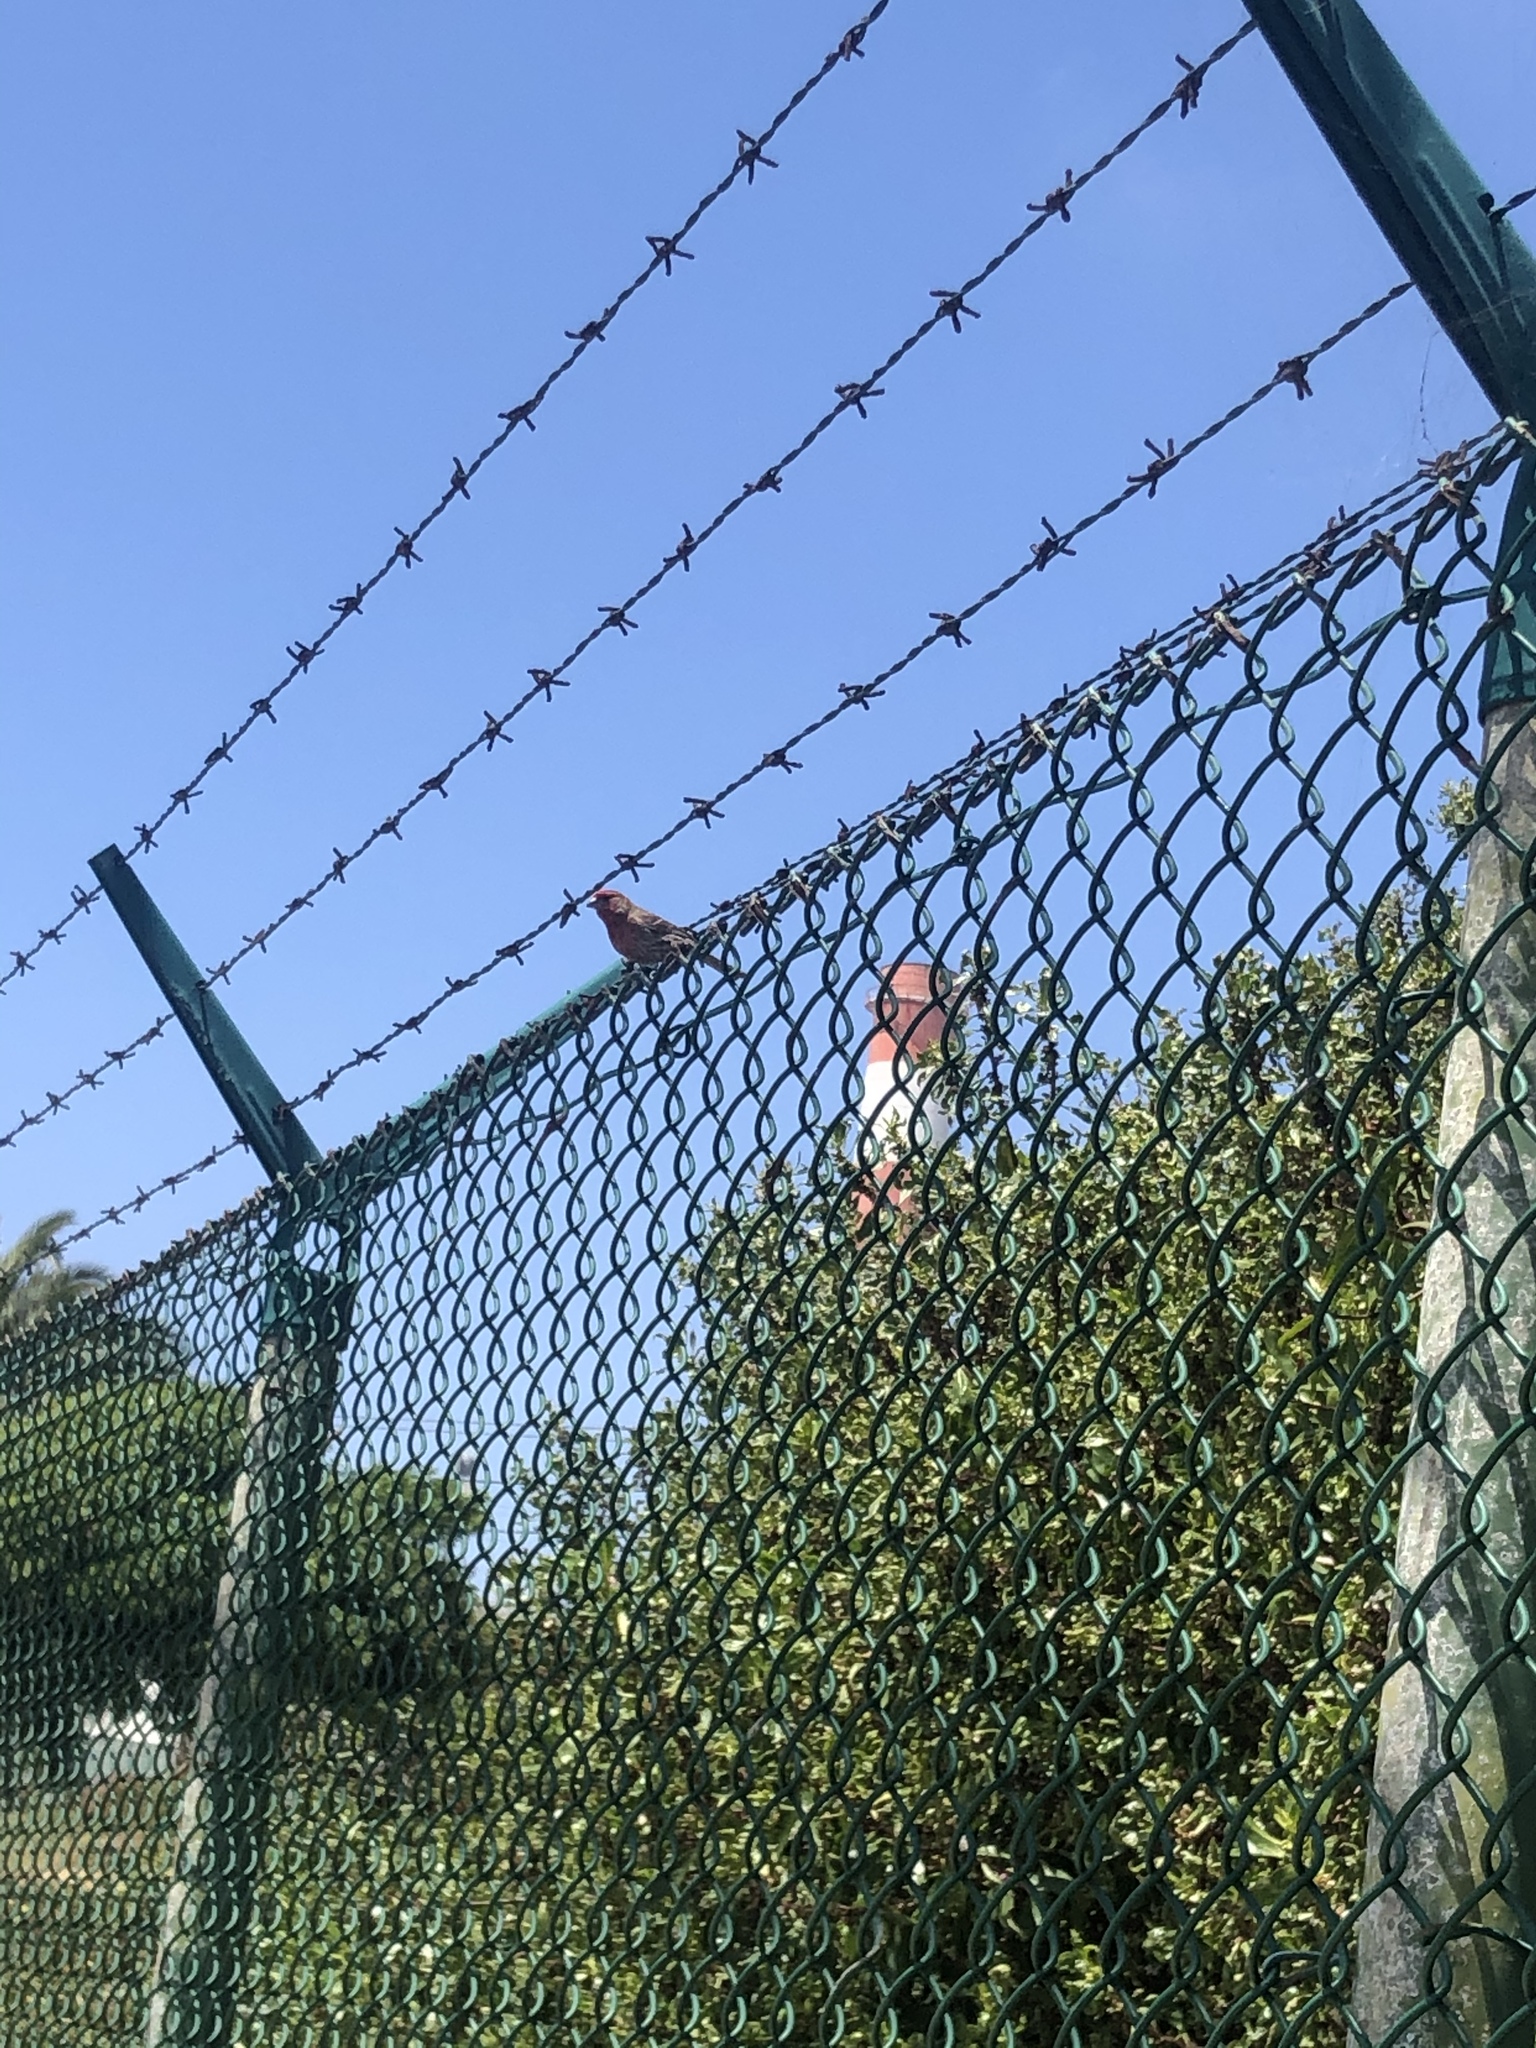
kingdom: Animalia
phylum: Chordata
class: Aves
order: Passeriformes
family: Fringillidae
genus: Haemorhous
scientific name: Haemorhous mexicanus
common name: House finch
